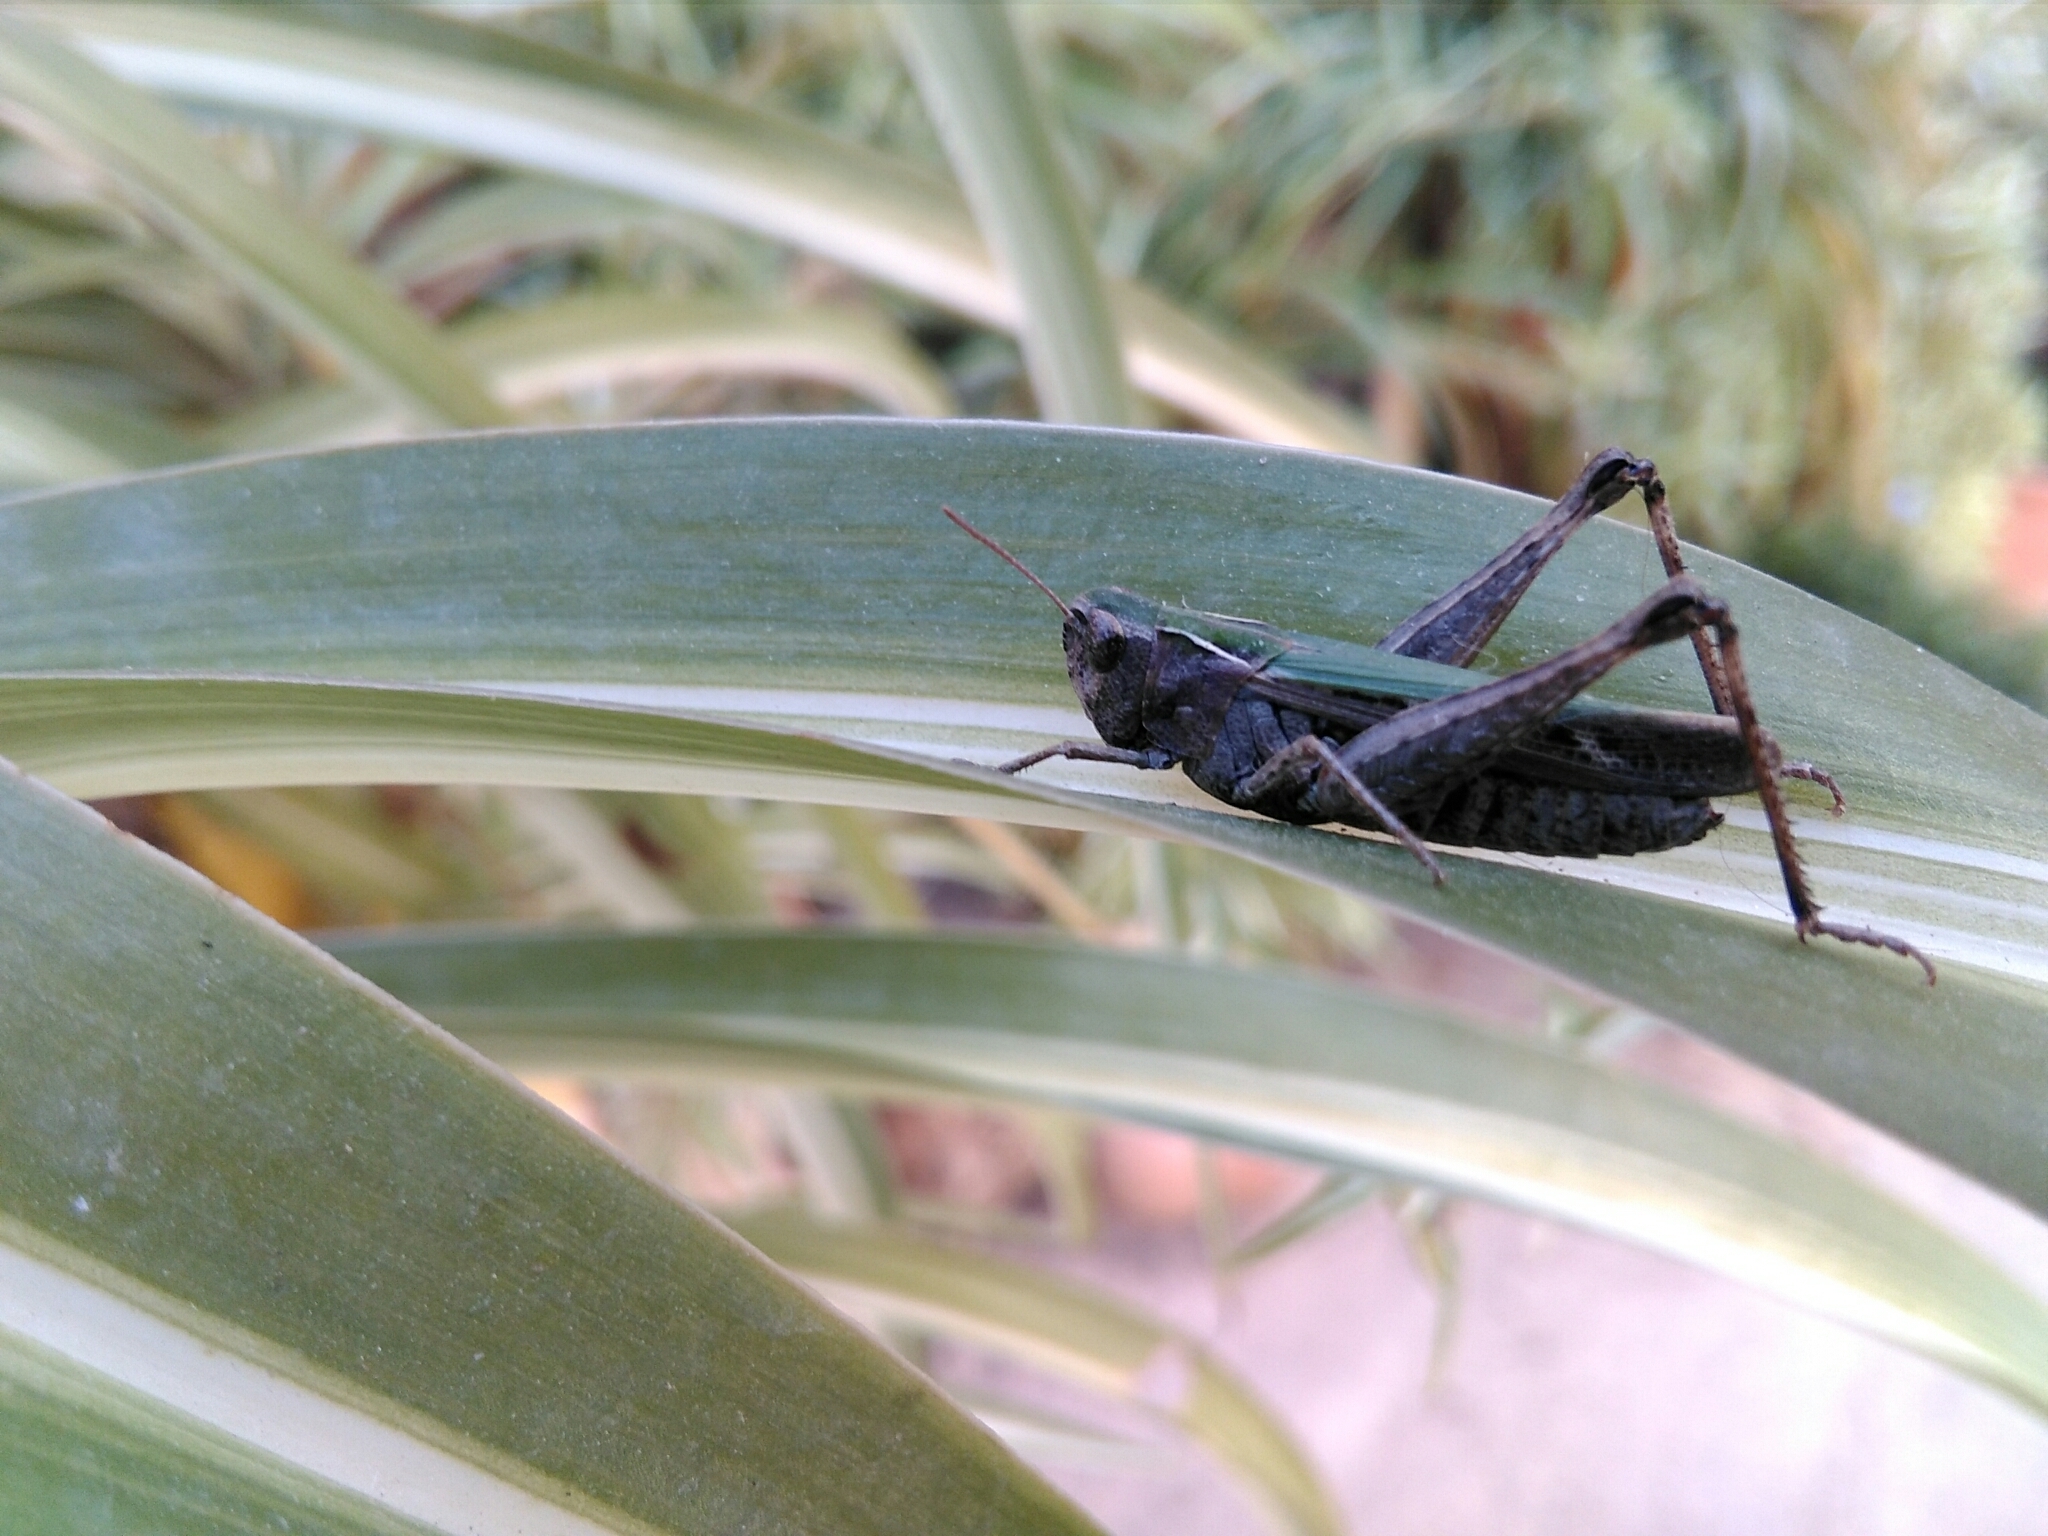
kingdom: Animalia
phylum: Arthropoda
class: Insecta
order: Orthoptera
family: Acrididae
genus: Omocestus
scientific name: Omocestus rufipes
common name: Woodland grasshopper
